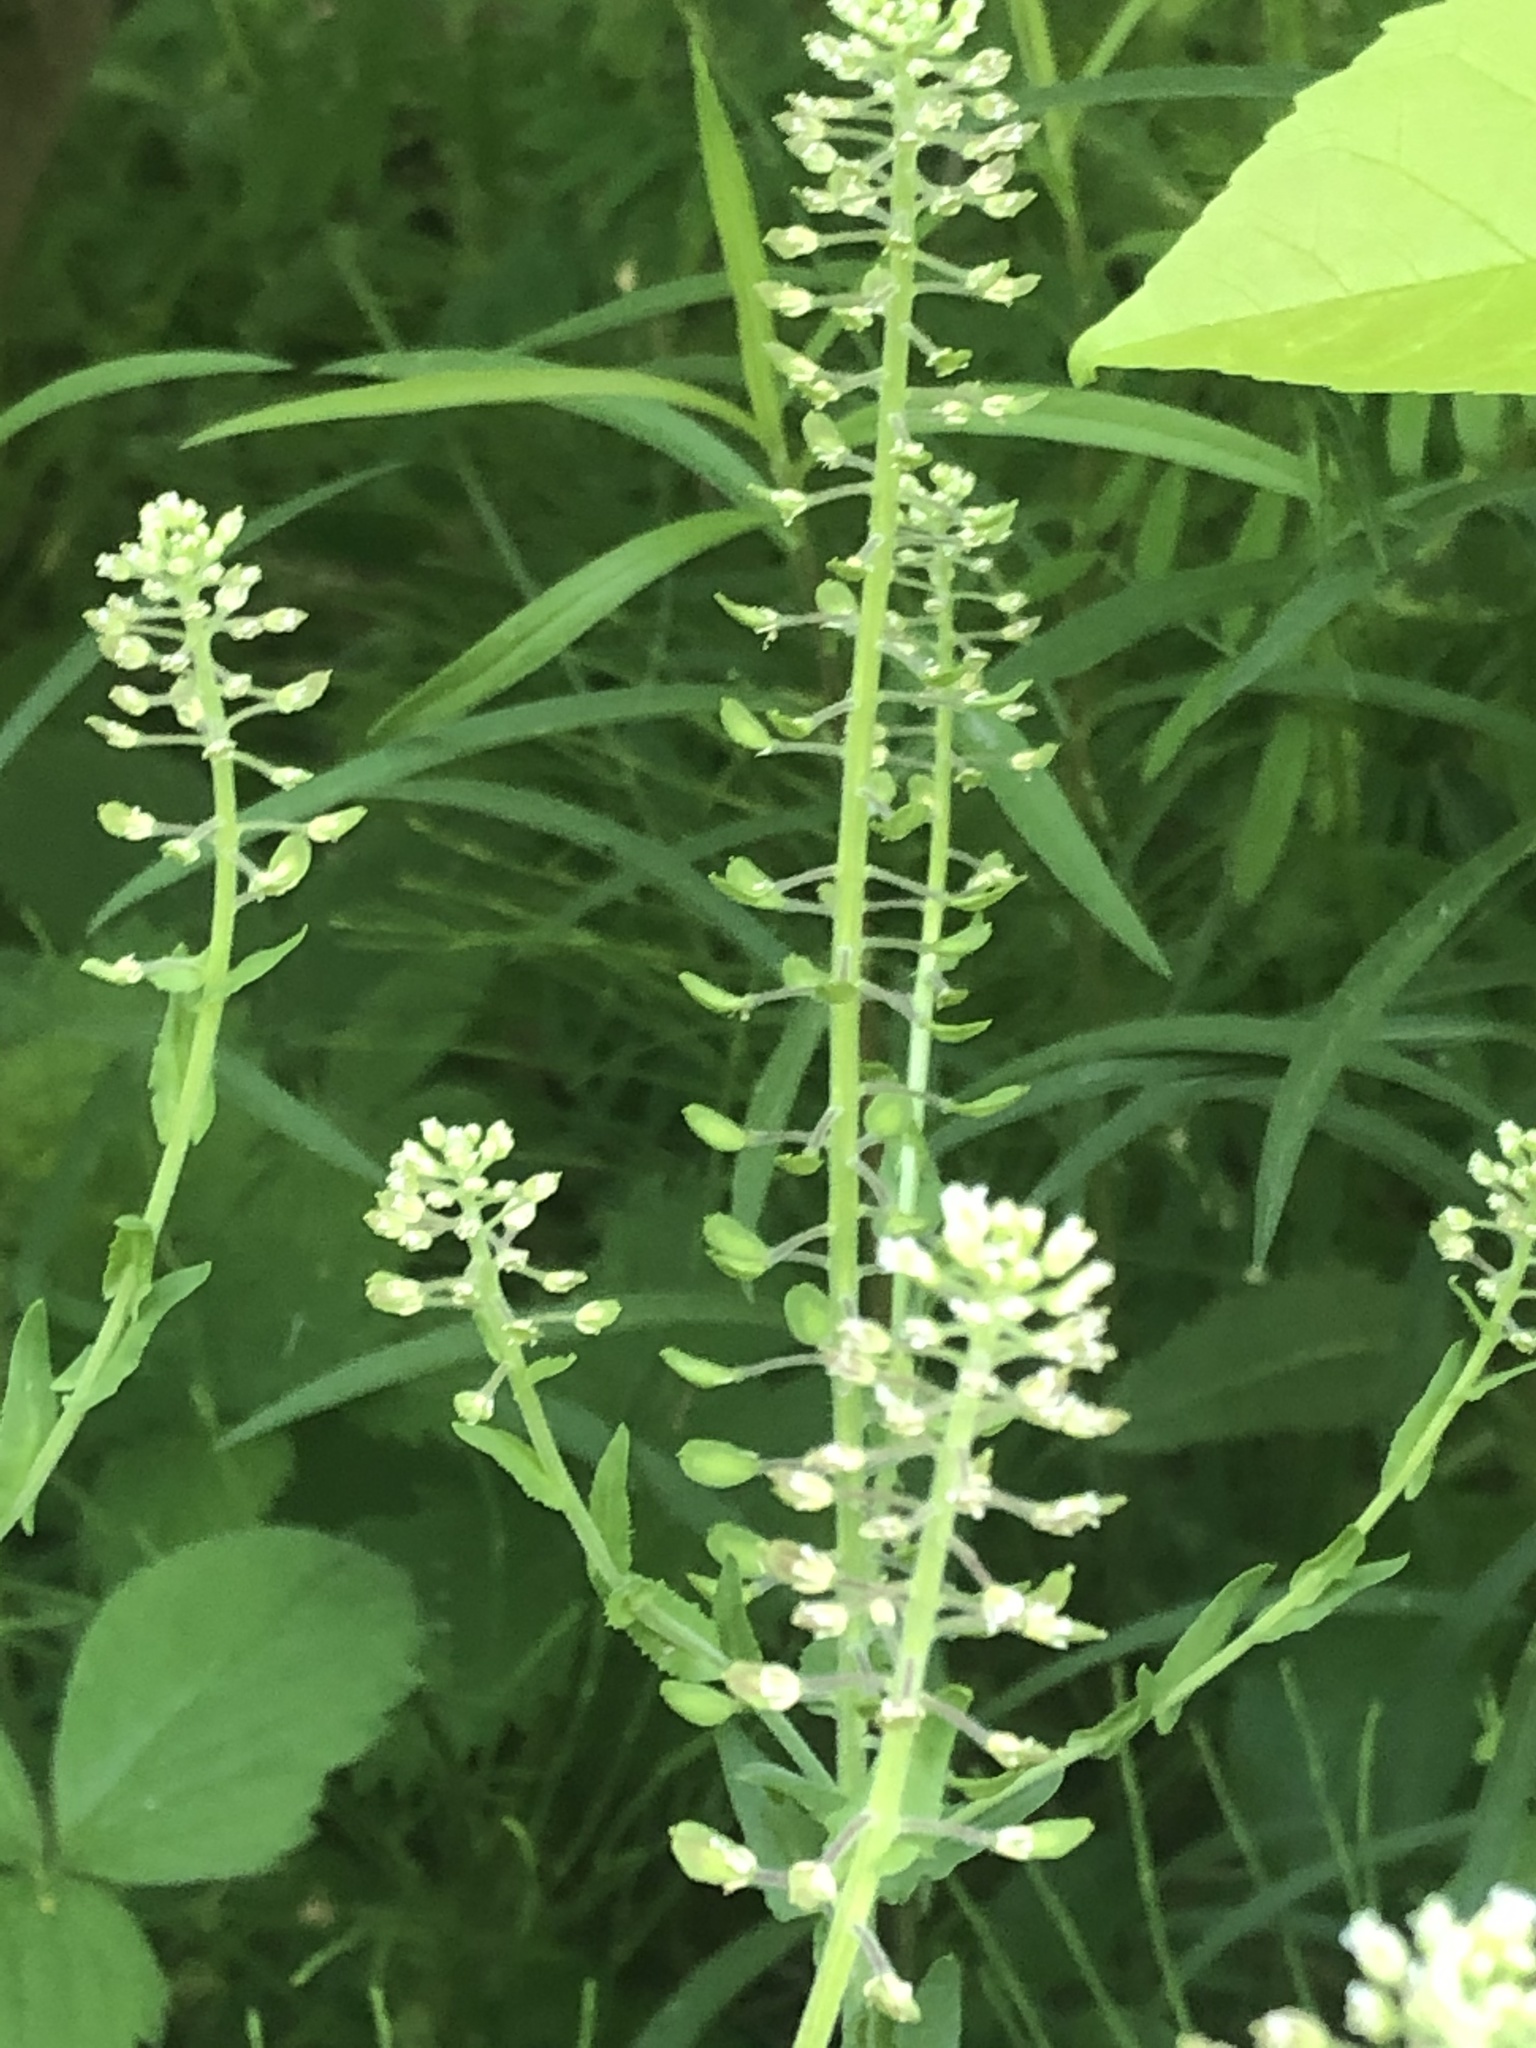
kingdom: Plantae
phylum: Tracheophyta
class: Magnoliopsida
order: Brassicales
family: Brassicaceae
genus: Lepidium
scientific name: Lepidium campestre
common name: Field pepperwort
